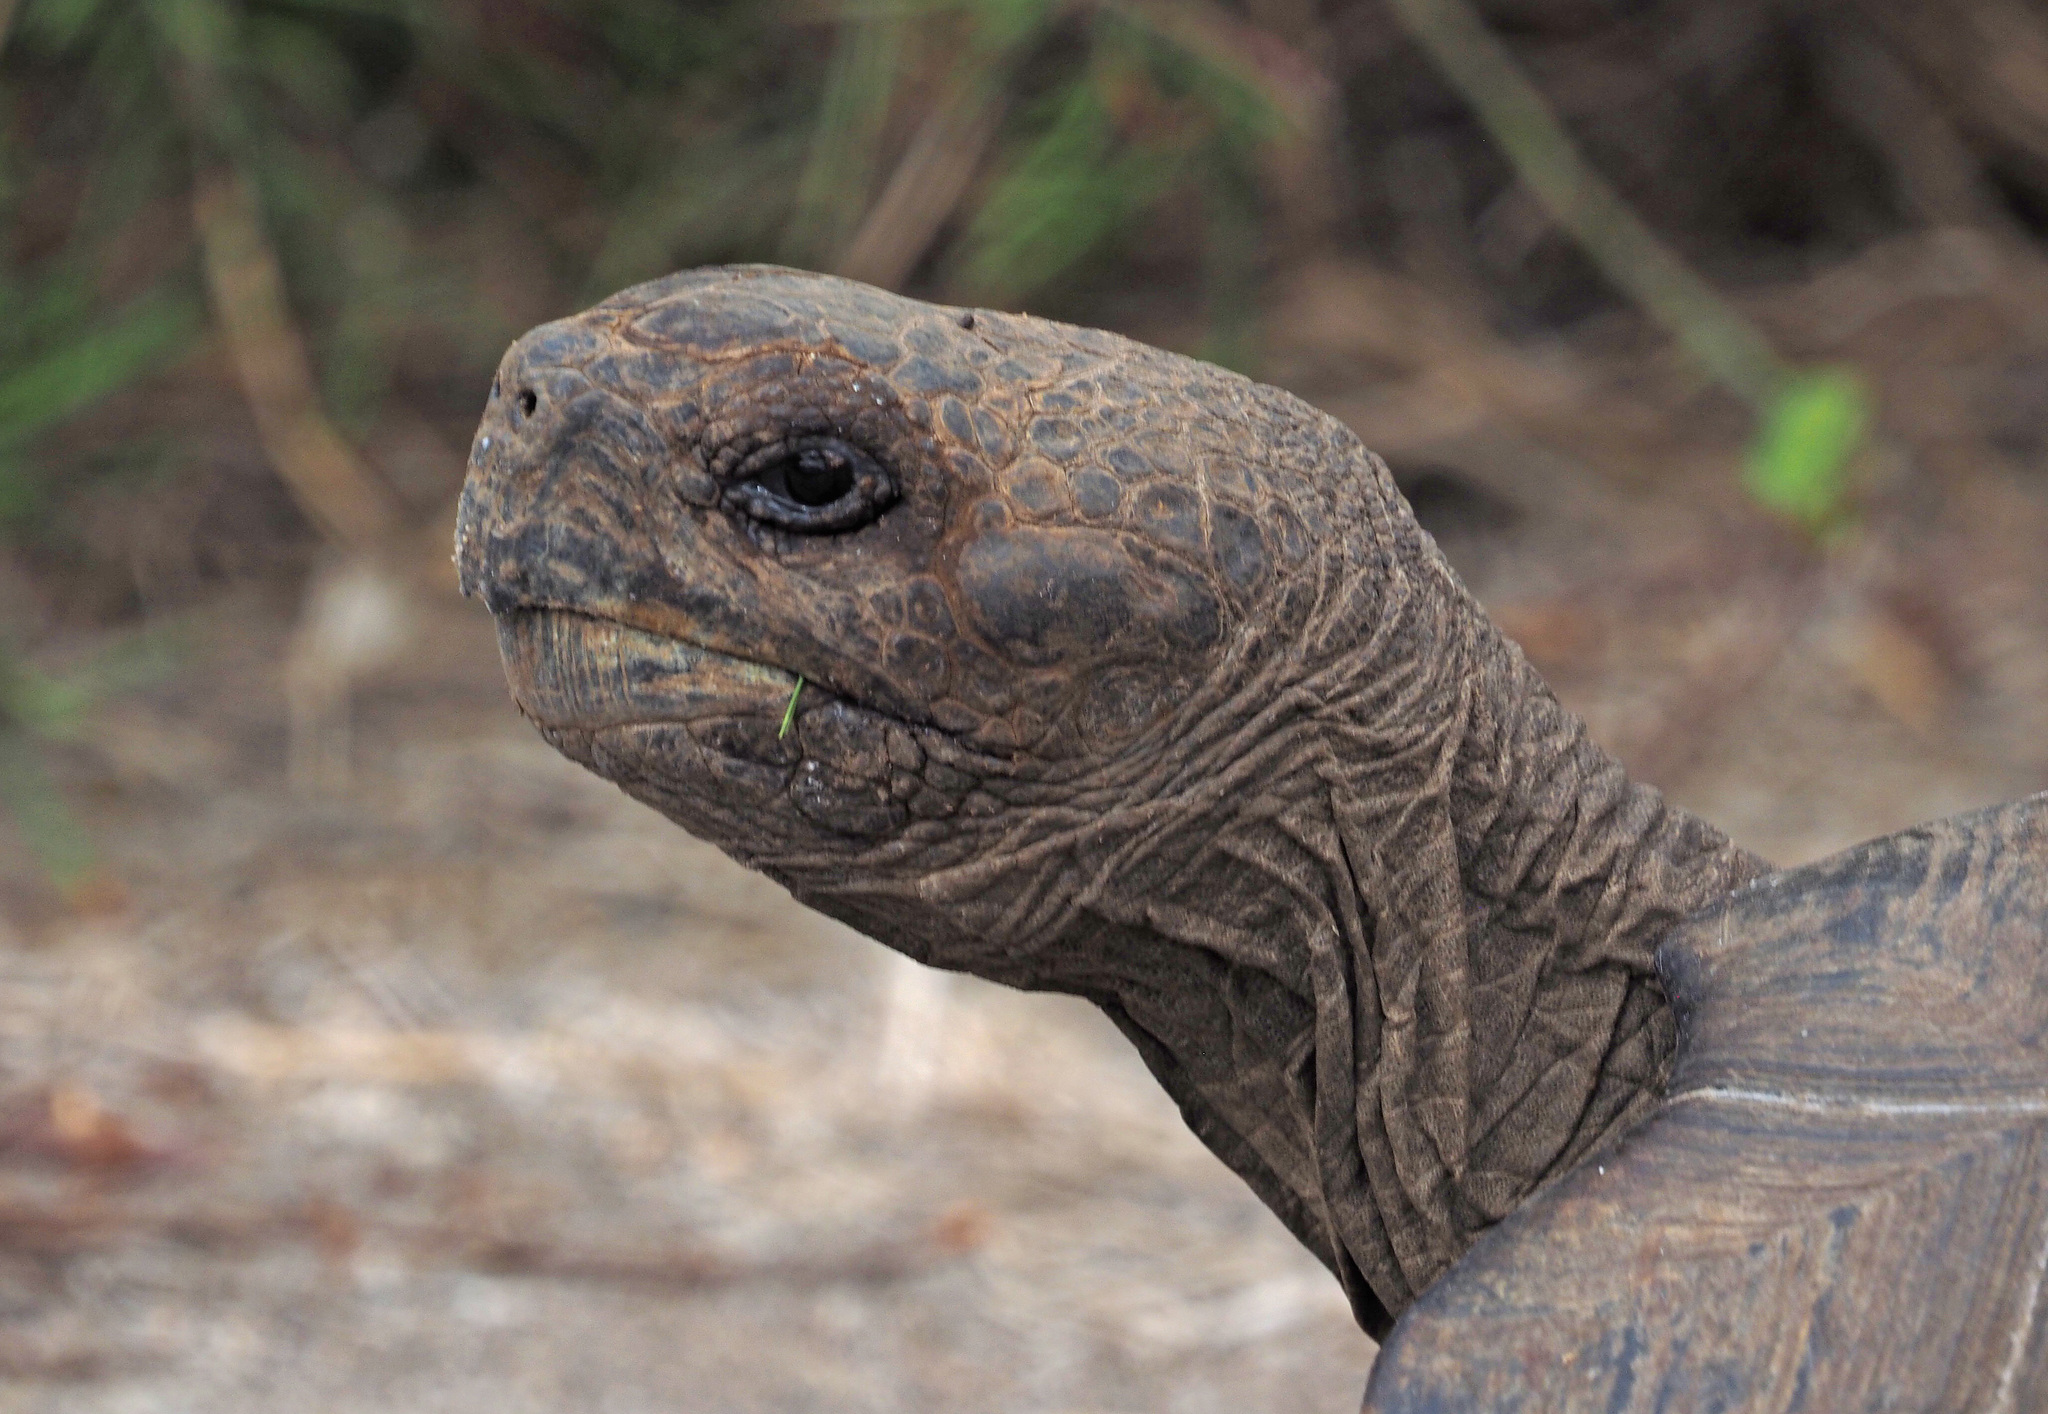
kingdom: Animalia
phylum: Chordata
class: Testudines
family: Testudinidae
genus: Chelonoidis
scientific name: Chelonoidis niger
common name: Charles island giant tortoise
